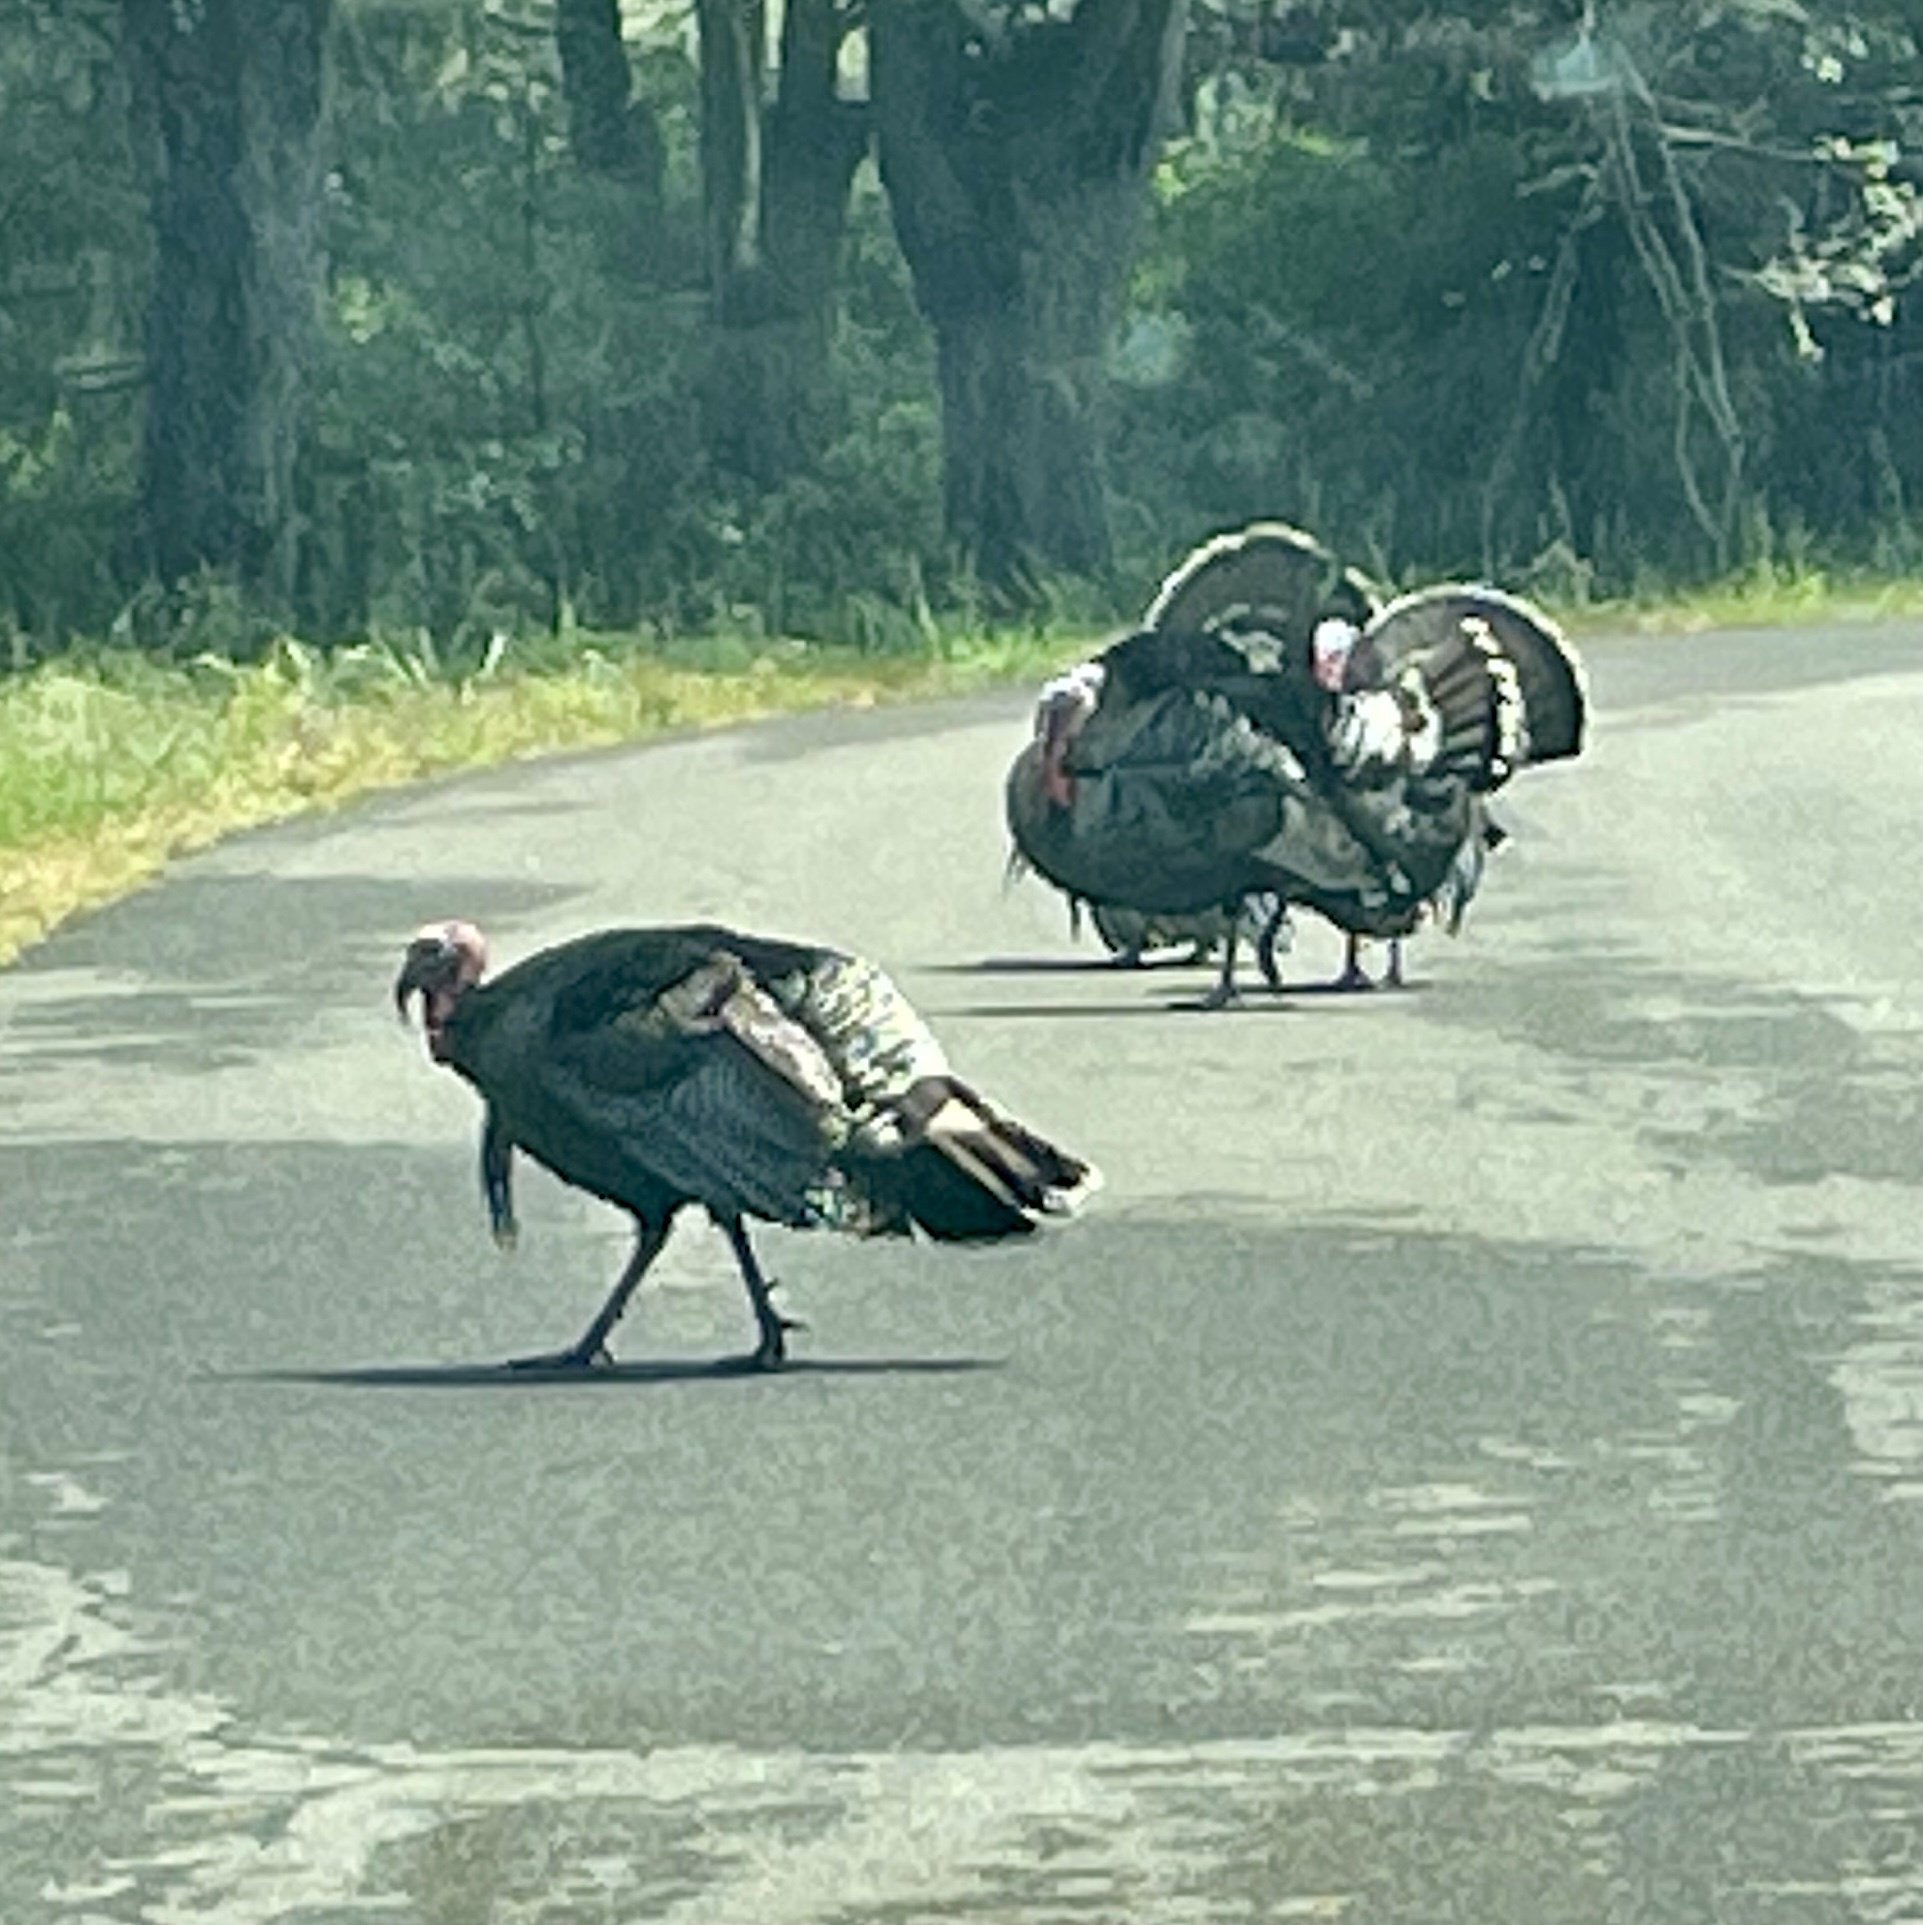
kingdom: Animalia
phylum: Chordata
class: Aves
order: Galliformes
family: Phasianidae
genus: Meleagris
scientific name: Meleagris gallopavo
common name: Wild turkey
